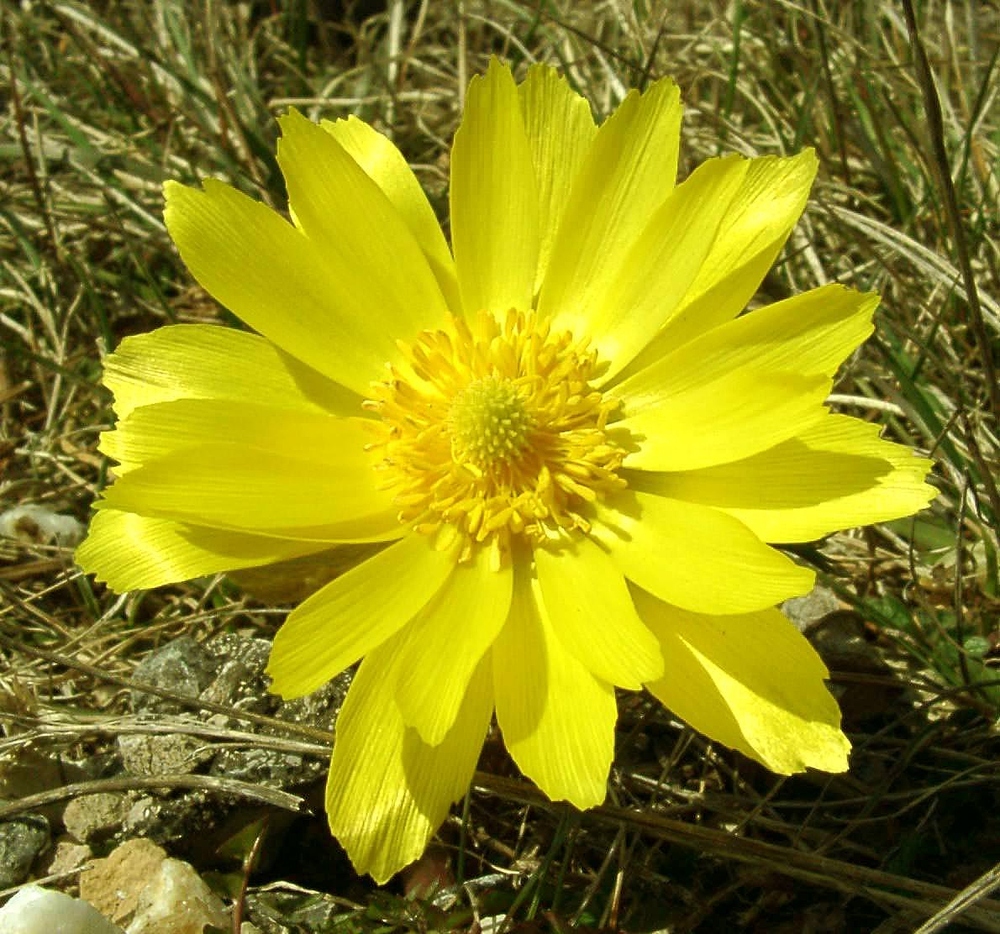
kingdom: Plantae
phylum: Tracheophyta
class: Magnoliopsida
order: Ranunculales
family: Ranunculaceae
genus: Adonis
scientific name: Adonis vernalis
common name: Yellow pheasants-eye
